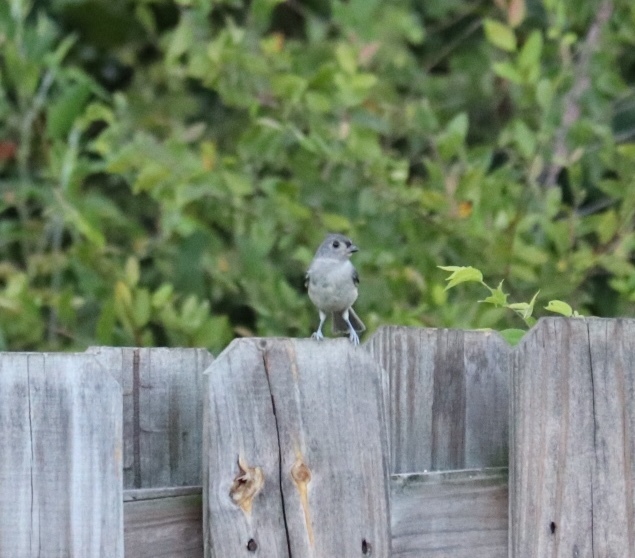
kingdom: Animalia
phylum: Chordata
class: Aves
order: Passeriformes
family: Paridae
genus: Baeolophus
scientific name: Baeolophus bicolor
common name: Tufted titmouse
